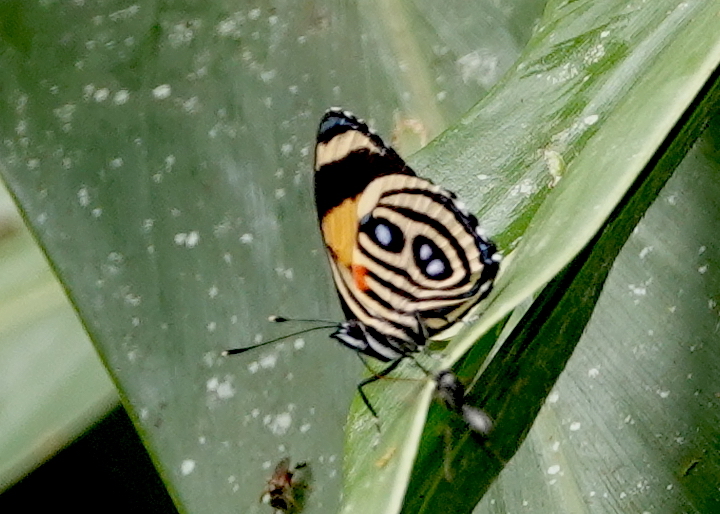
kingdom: Animalia
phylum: Arthropoda
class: Insecta
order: Lepidoptera
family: Nymphalidae
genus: Catagramma
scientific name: Catagramma tolima
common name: Blue-and-orange eighty-eight
